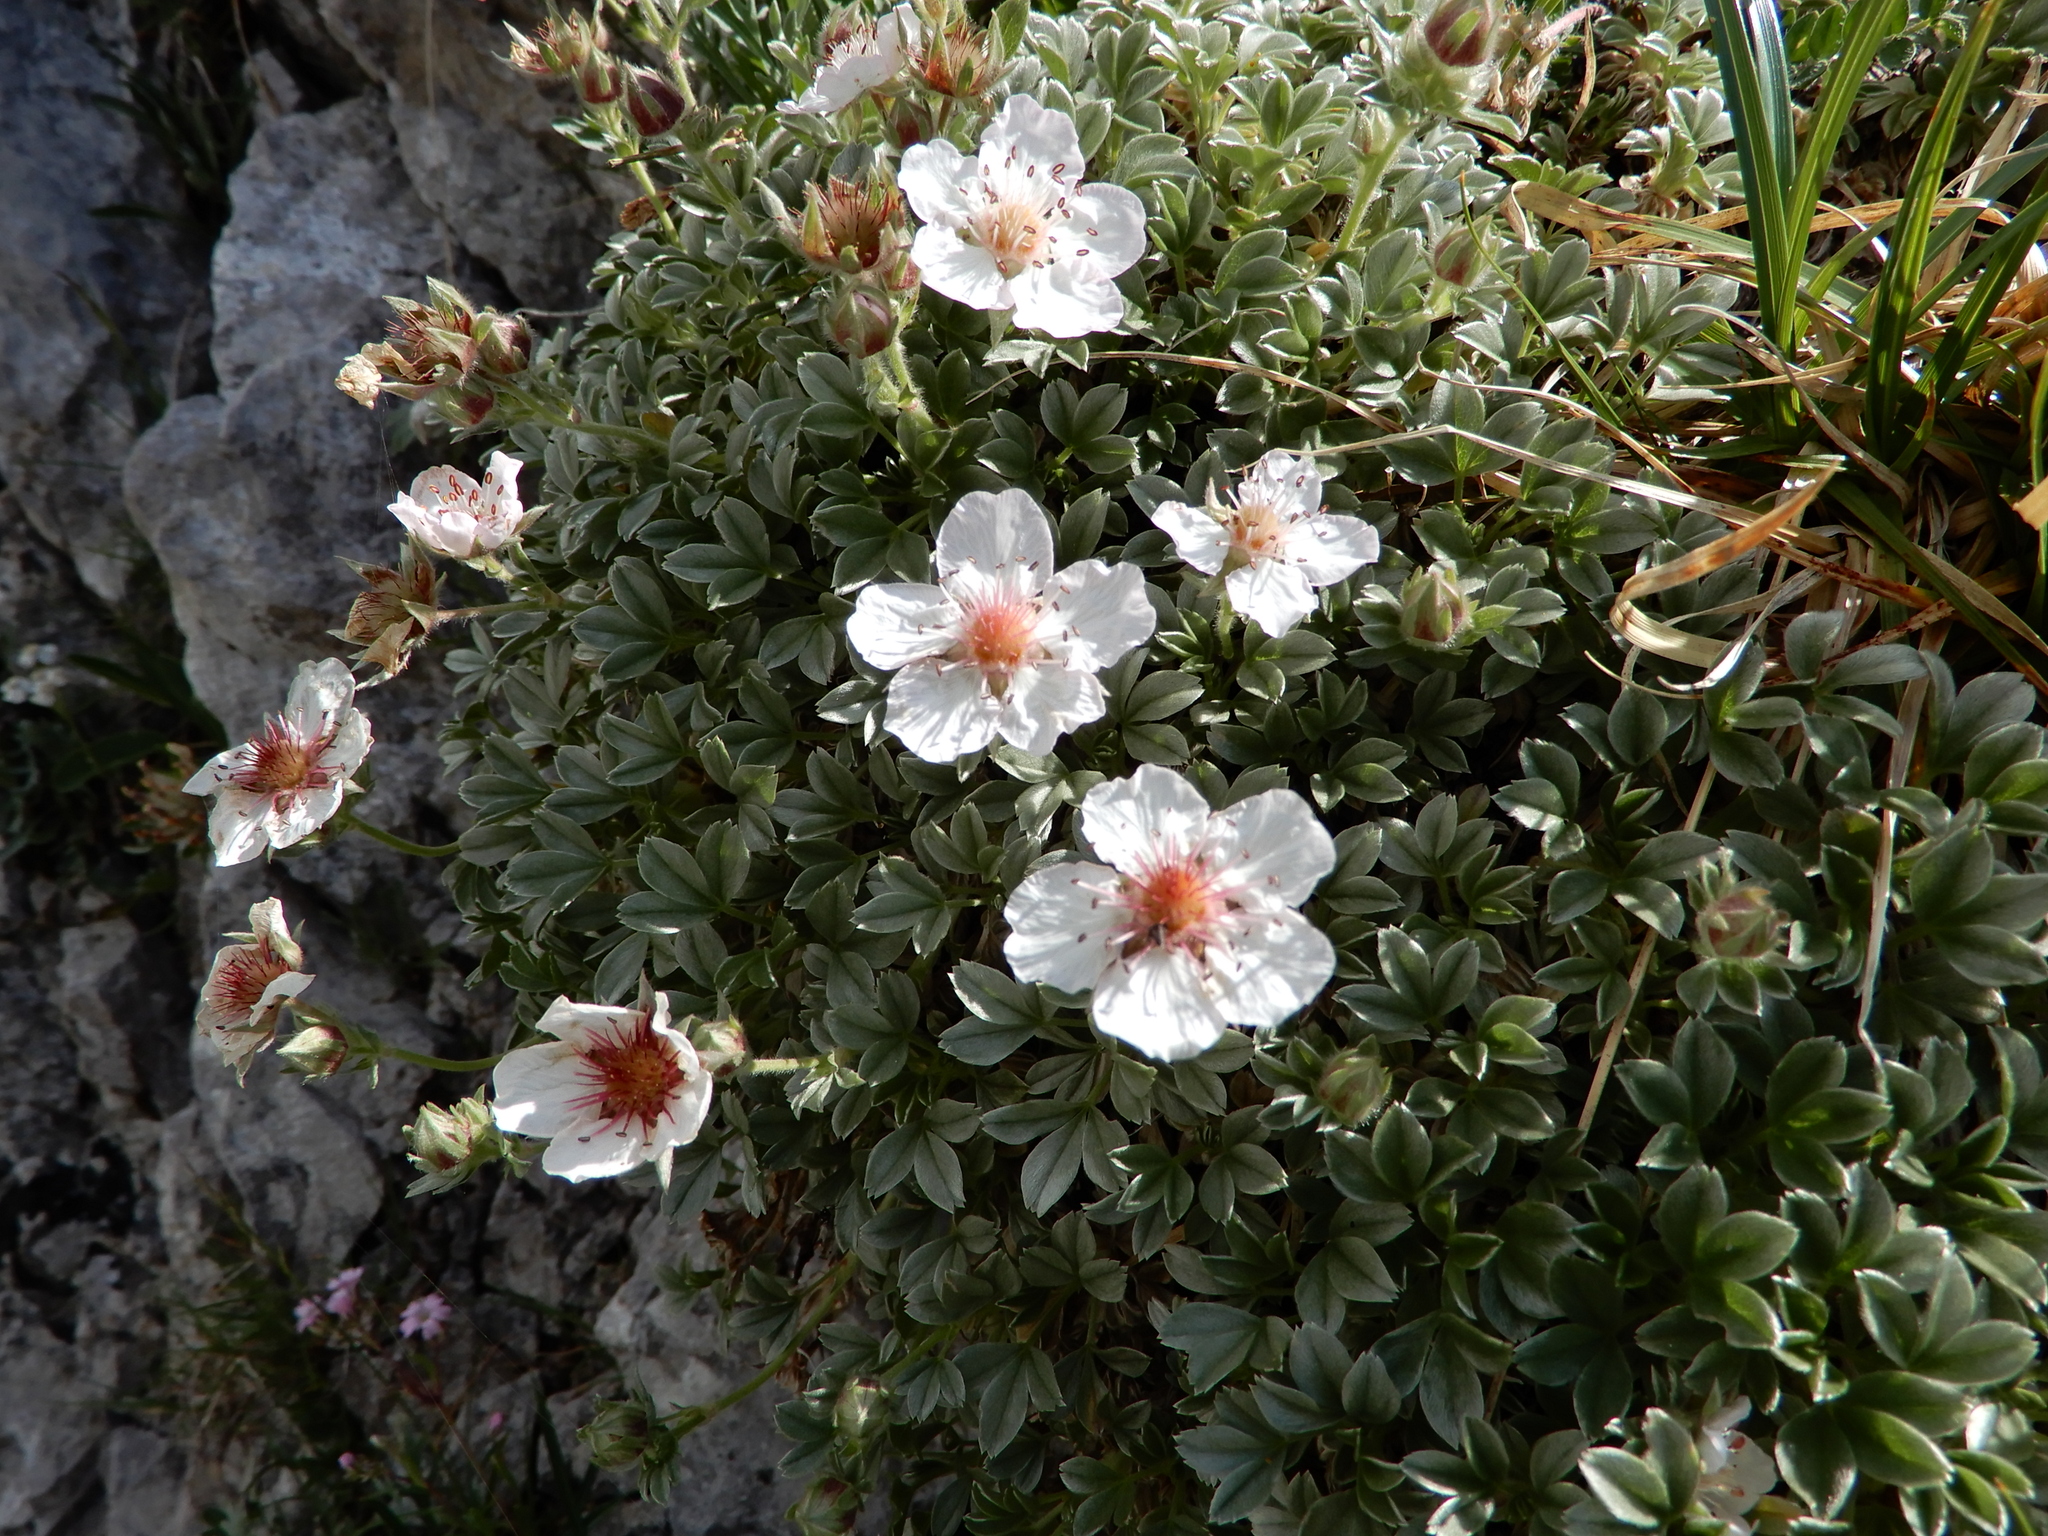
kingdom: Plantae
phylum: Tracheophyta
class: Magnoliopsida
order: Rosales
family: Rosaceae
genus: Potentilla
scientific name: Potentilla nitida
